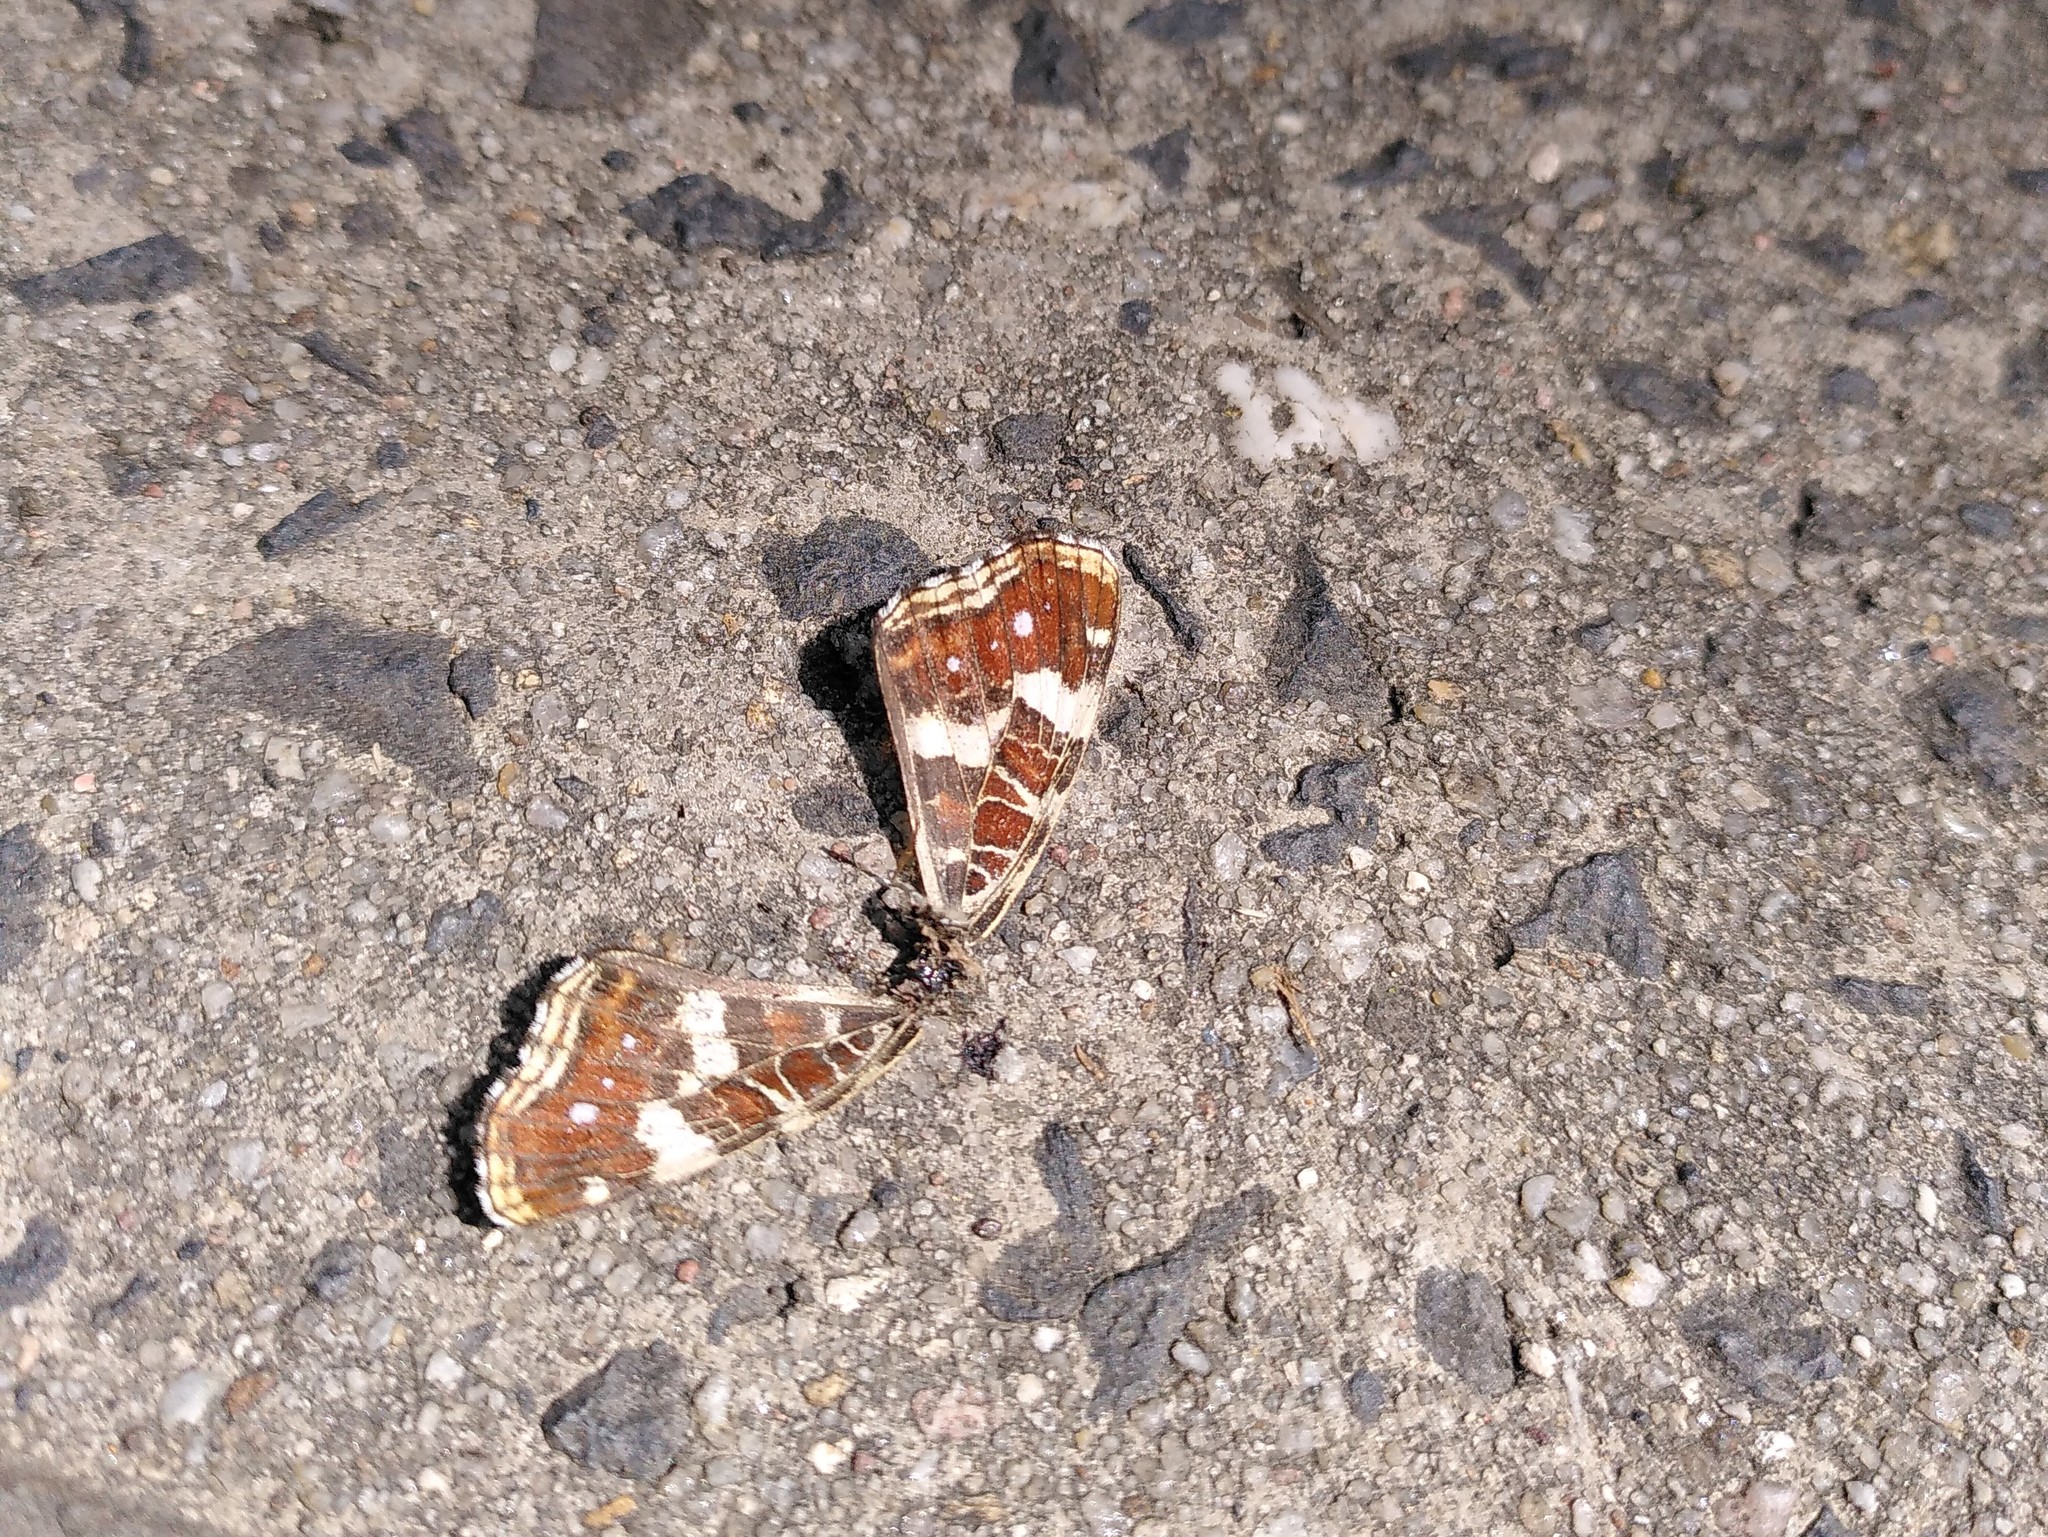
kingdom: Animalia
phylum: Arthropoda
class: Insecta
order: Lepidoptera
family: Nymphalidae
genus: Araschnia
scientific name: Araschnia levana
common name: Map butterfly
